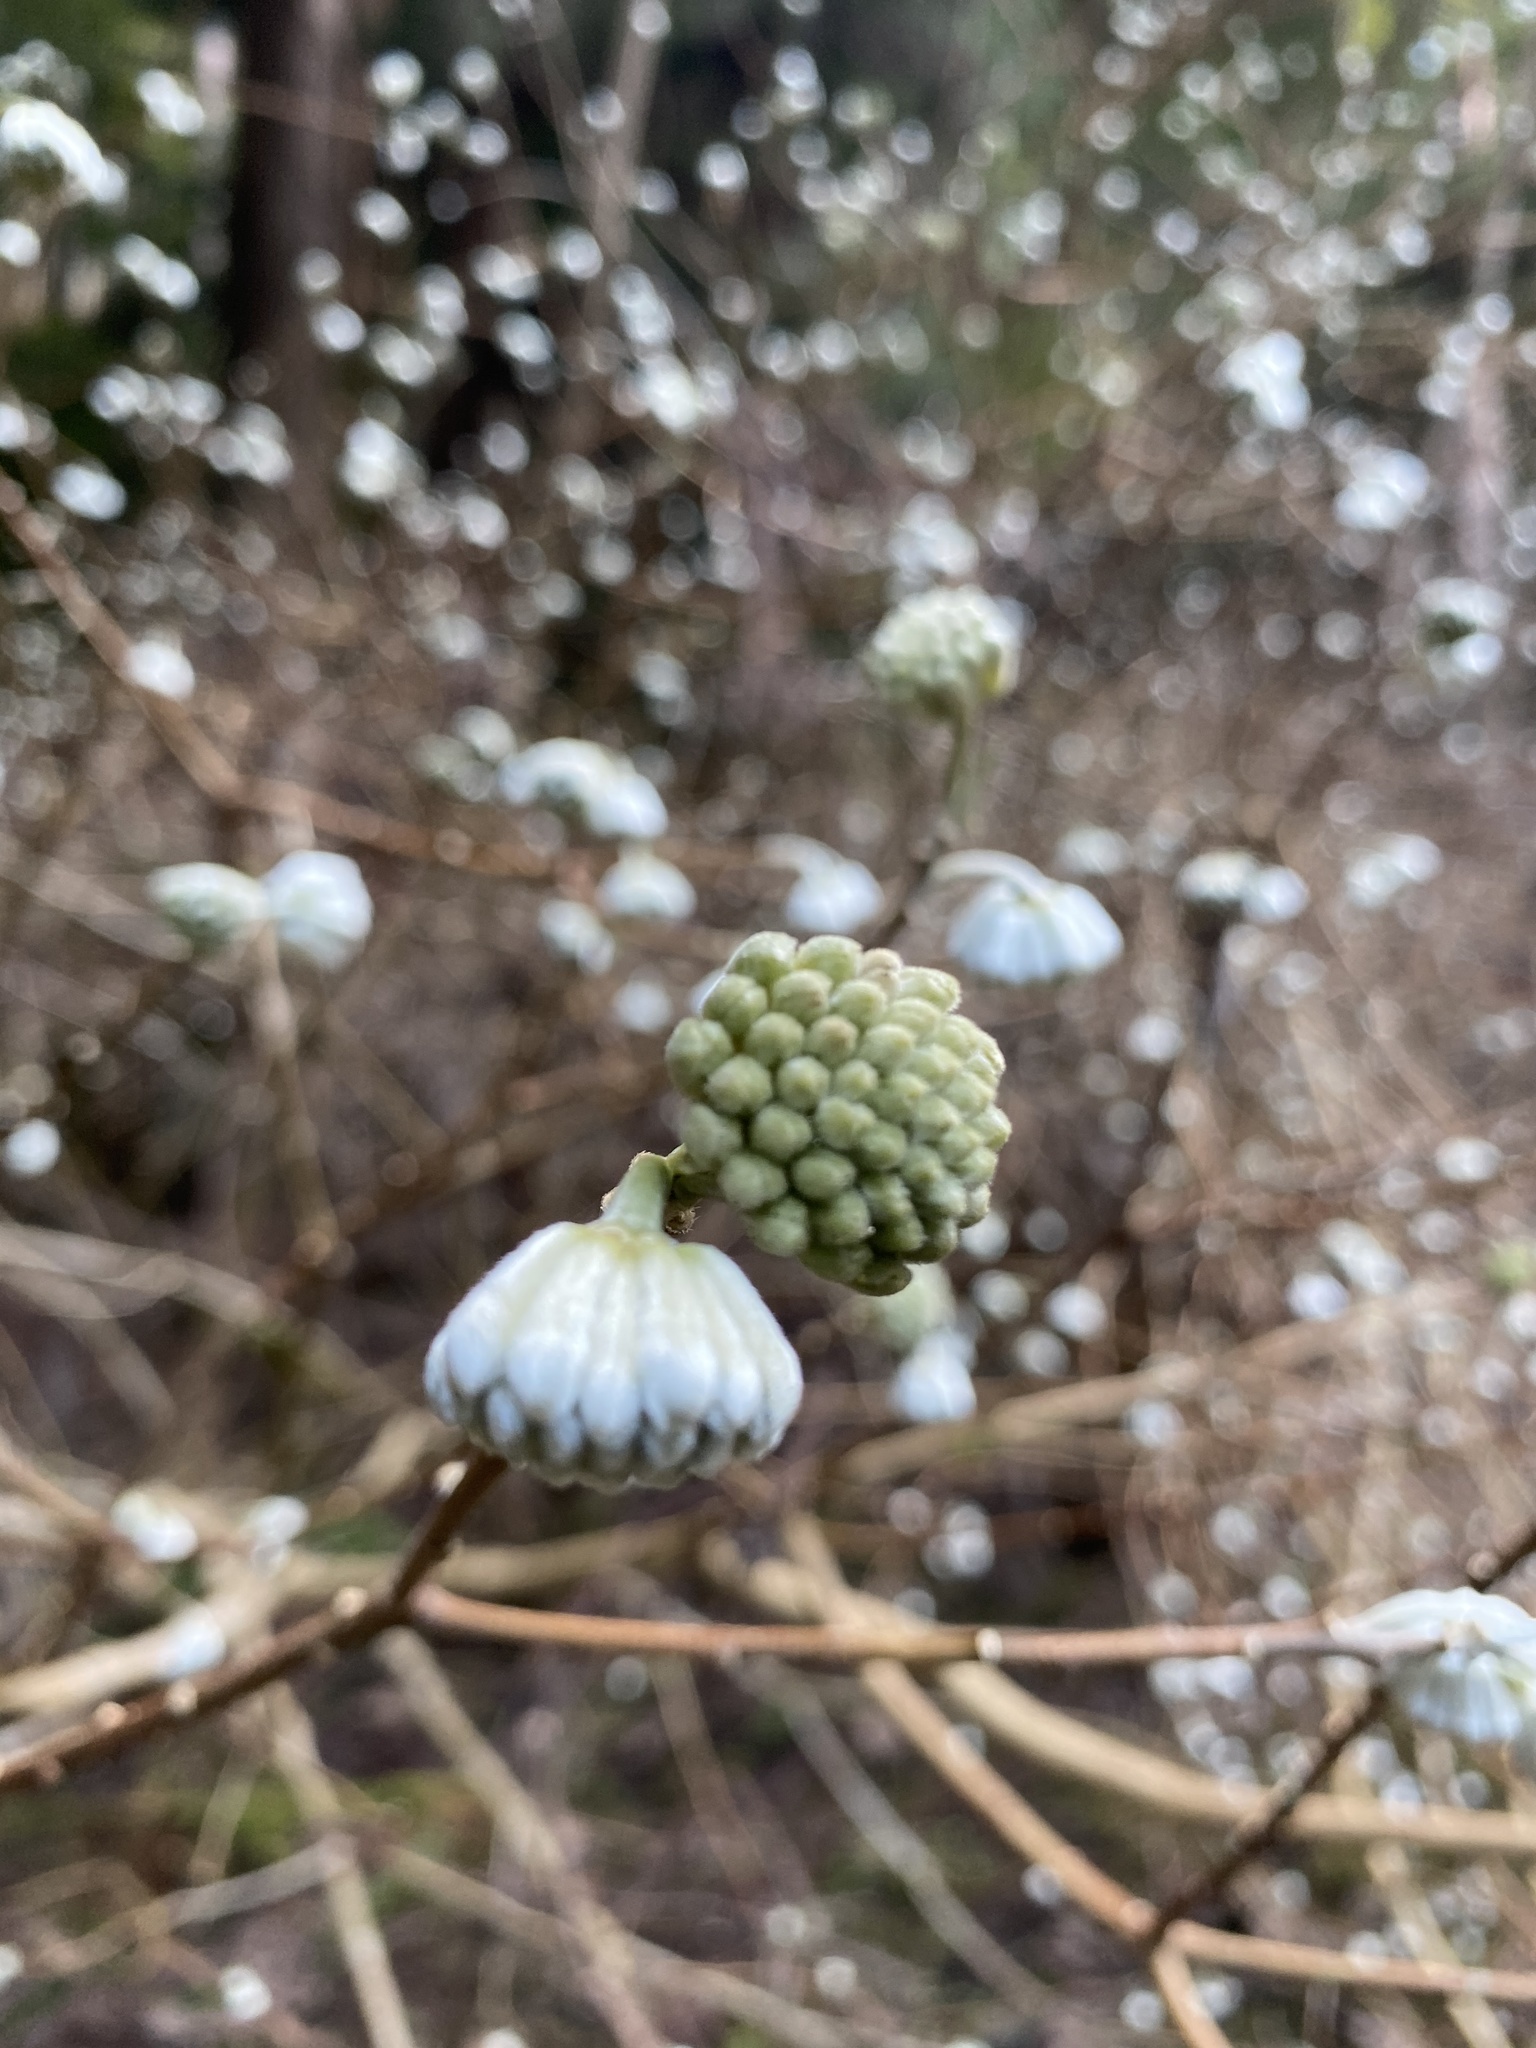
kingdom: Plantae
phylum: Tracheophyta
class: Magnoliopsida
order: Malvales
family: Thymelaeaceae
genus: Edgeworthia
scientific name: Edgeworthia chrysantha
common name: Oriental paperbush
